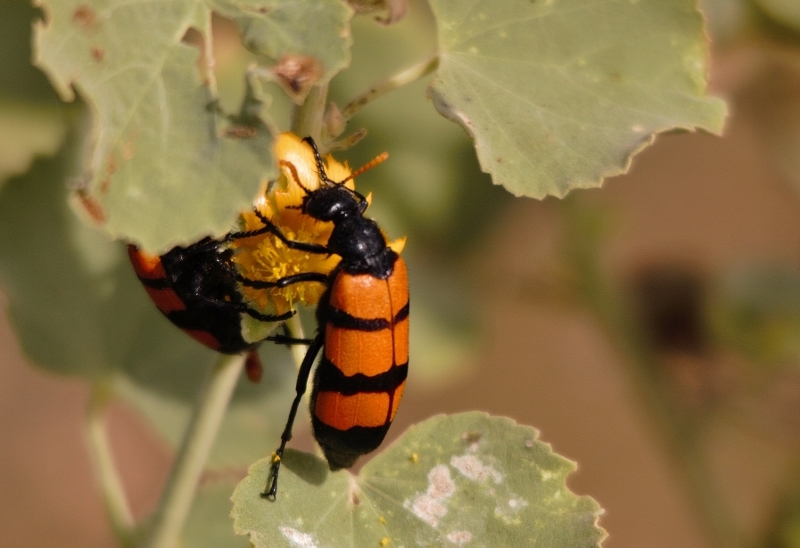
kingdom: Animalia
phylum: Arthropoda
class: Insecta
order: Coleoptera
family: Meloidae
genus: Hycleus
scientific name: Hycleus trifasciatus
